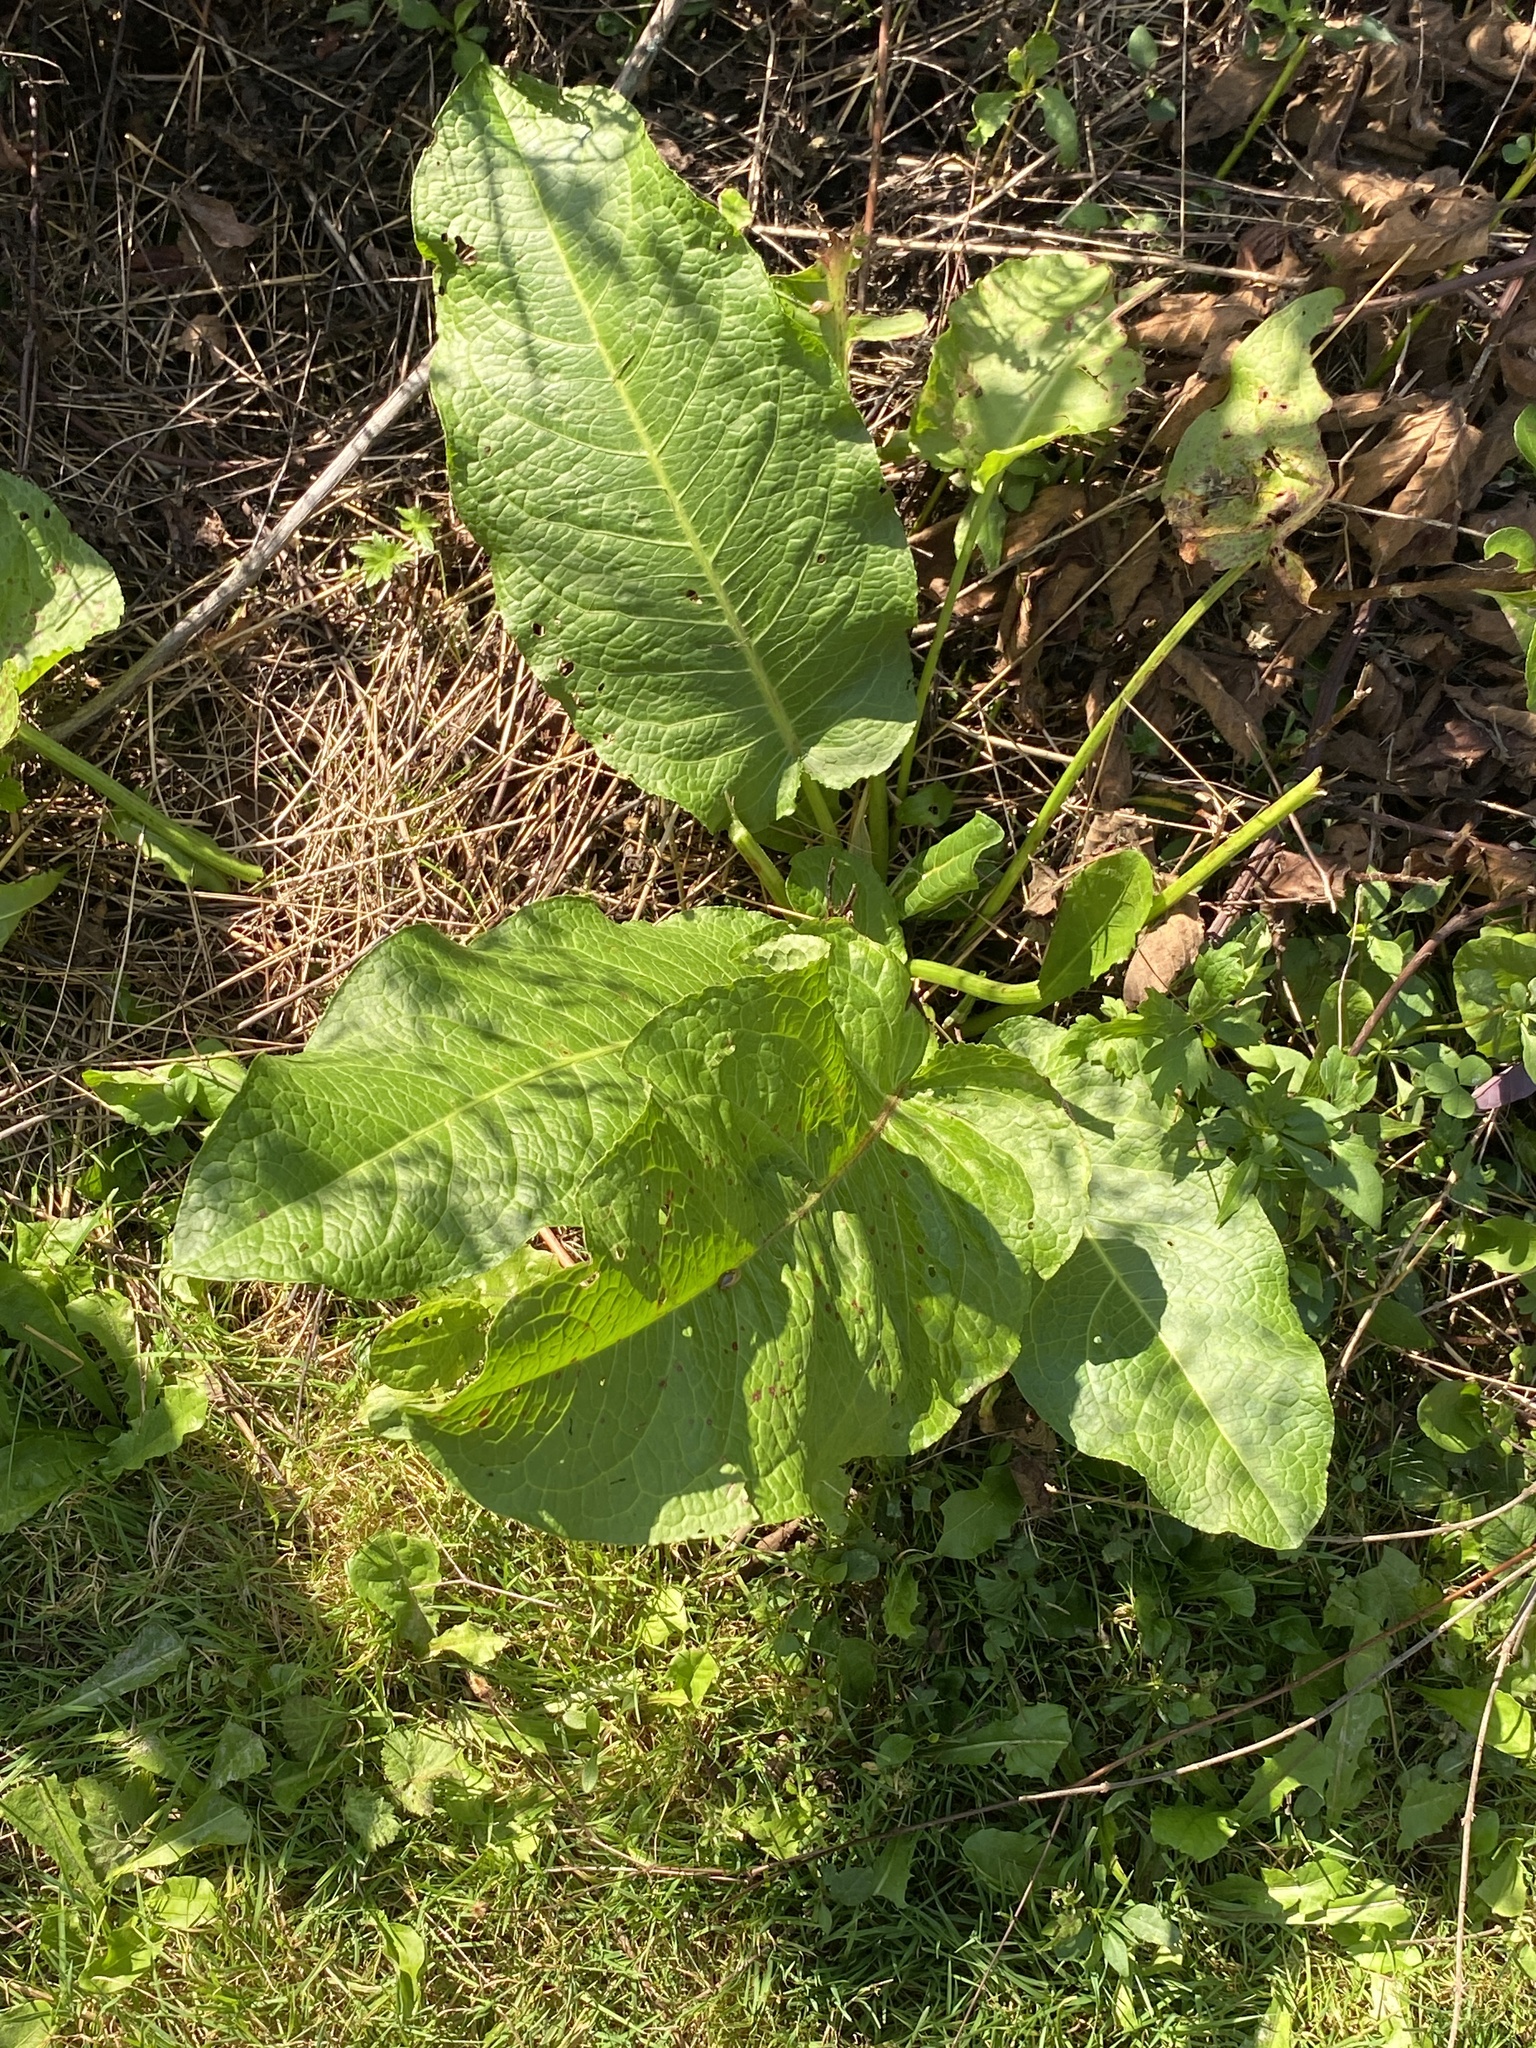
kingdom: Plantae
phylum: Tracheophyta
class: Magnoliopsida
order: Caryophyllales
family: Polygonaceae
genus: Rumex
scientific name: Rumex obtusifolius
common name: Bitter dock
